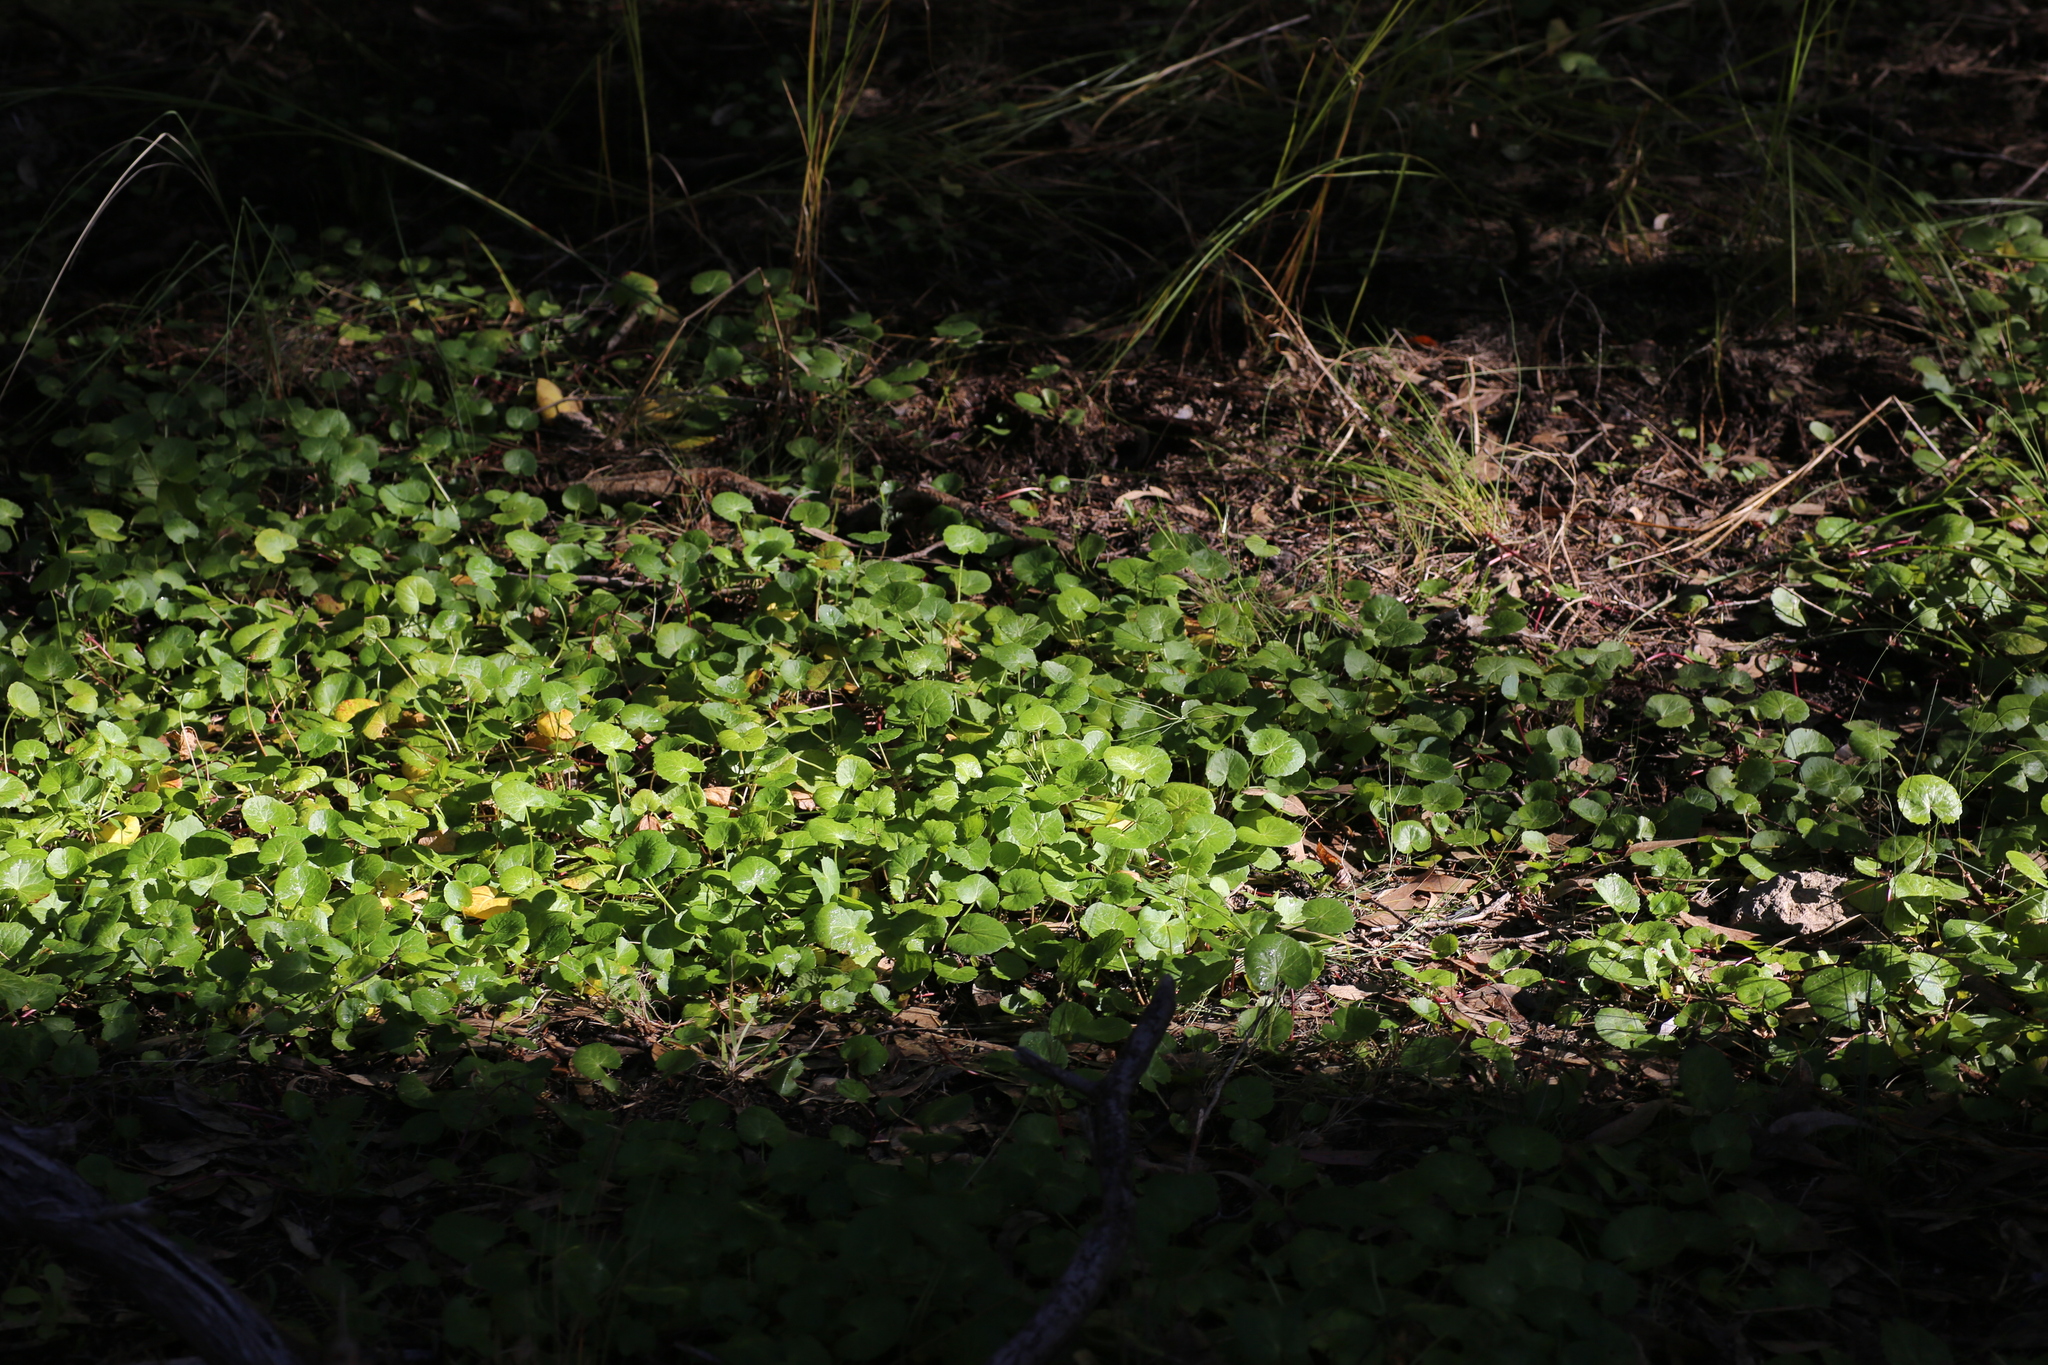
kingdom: Plantae
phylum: Tracheophyta
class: Magnoliopsida
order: Apiales
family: Apiaceae
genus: Centella
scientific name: Centella asiatica
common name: Spadeleaf
